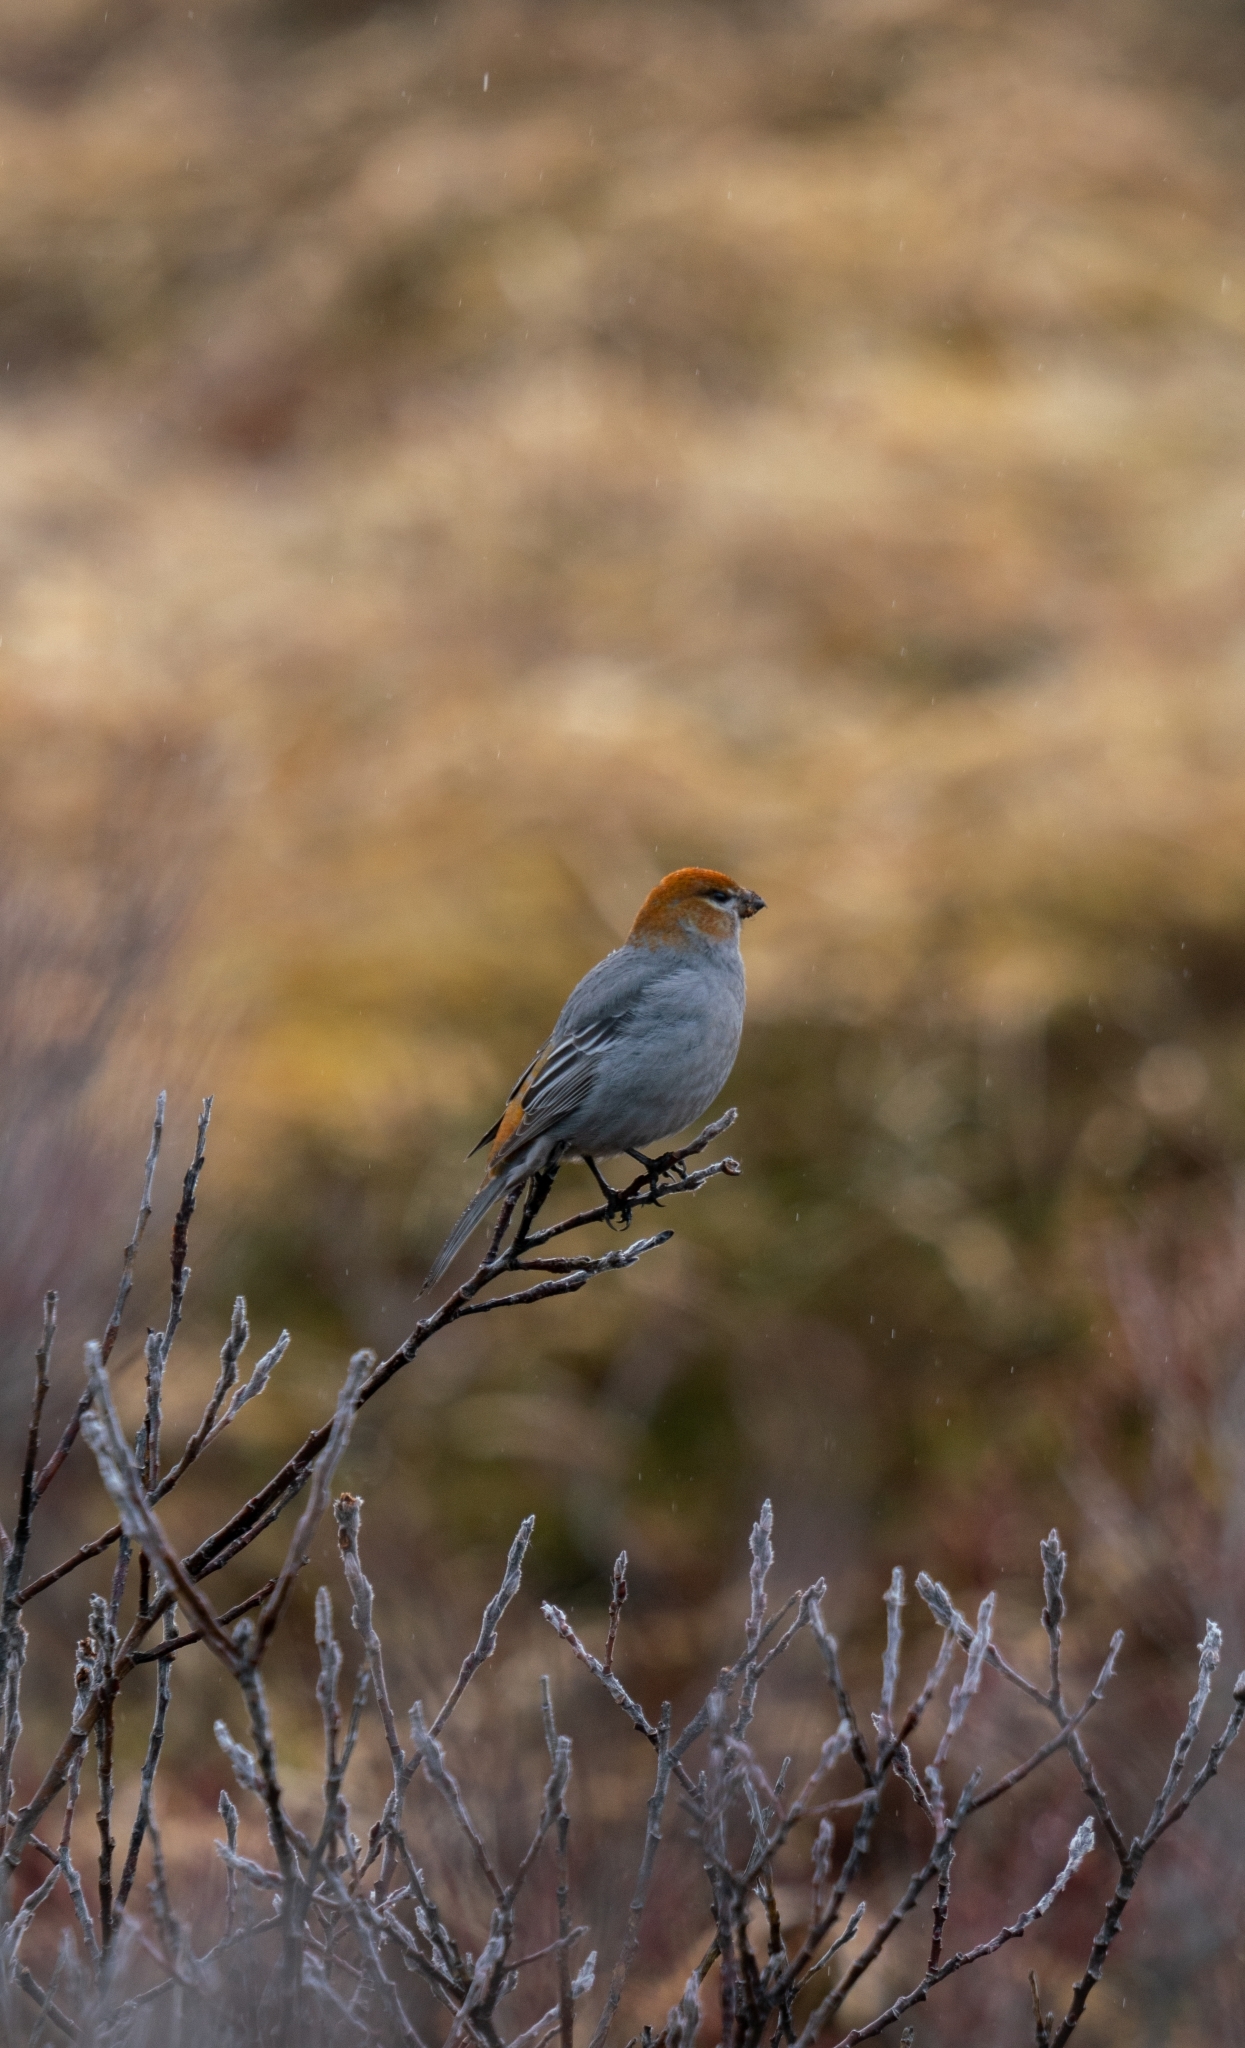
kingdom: Animalia
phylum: Chordata
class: Aves
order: Passeriformes
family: Fringillidae
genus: Pinicola
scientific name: Pinicola enucleator
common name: Pine grosbeak
